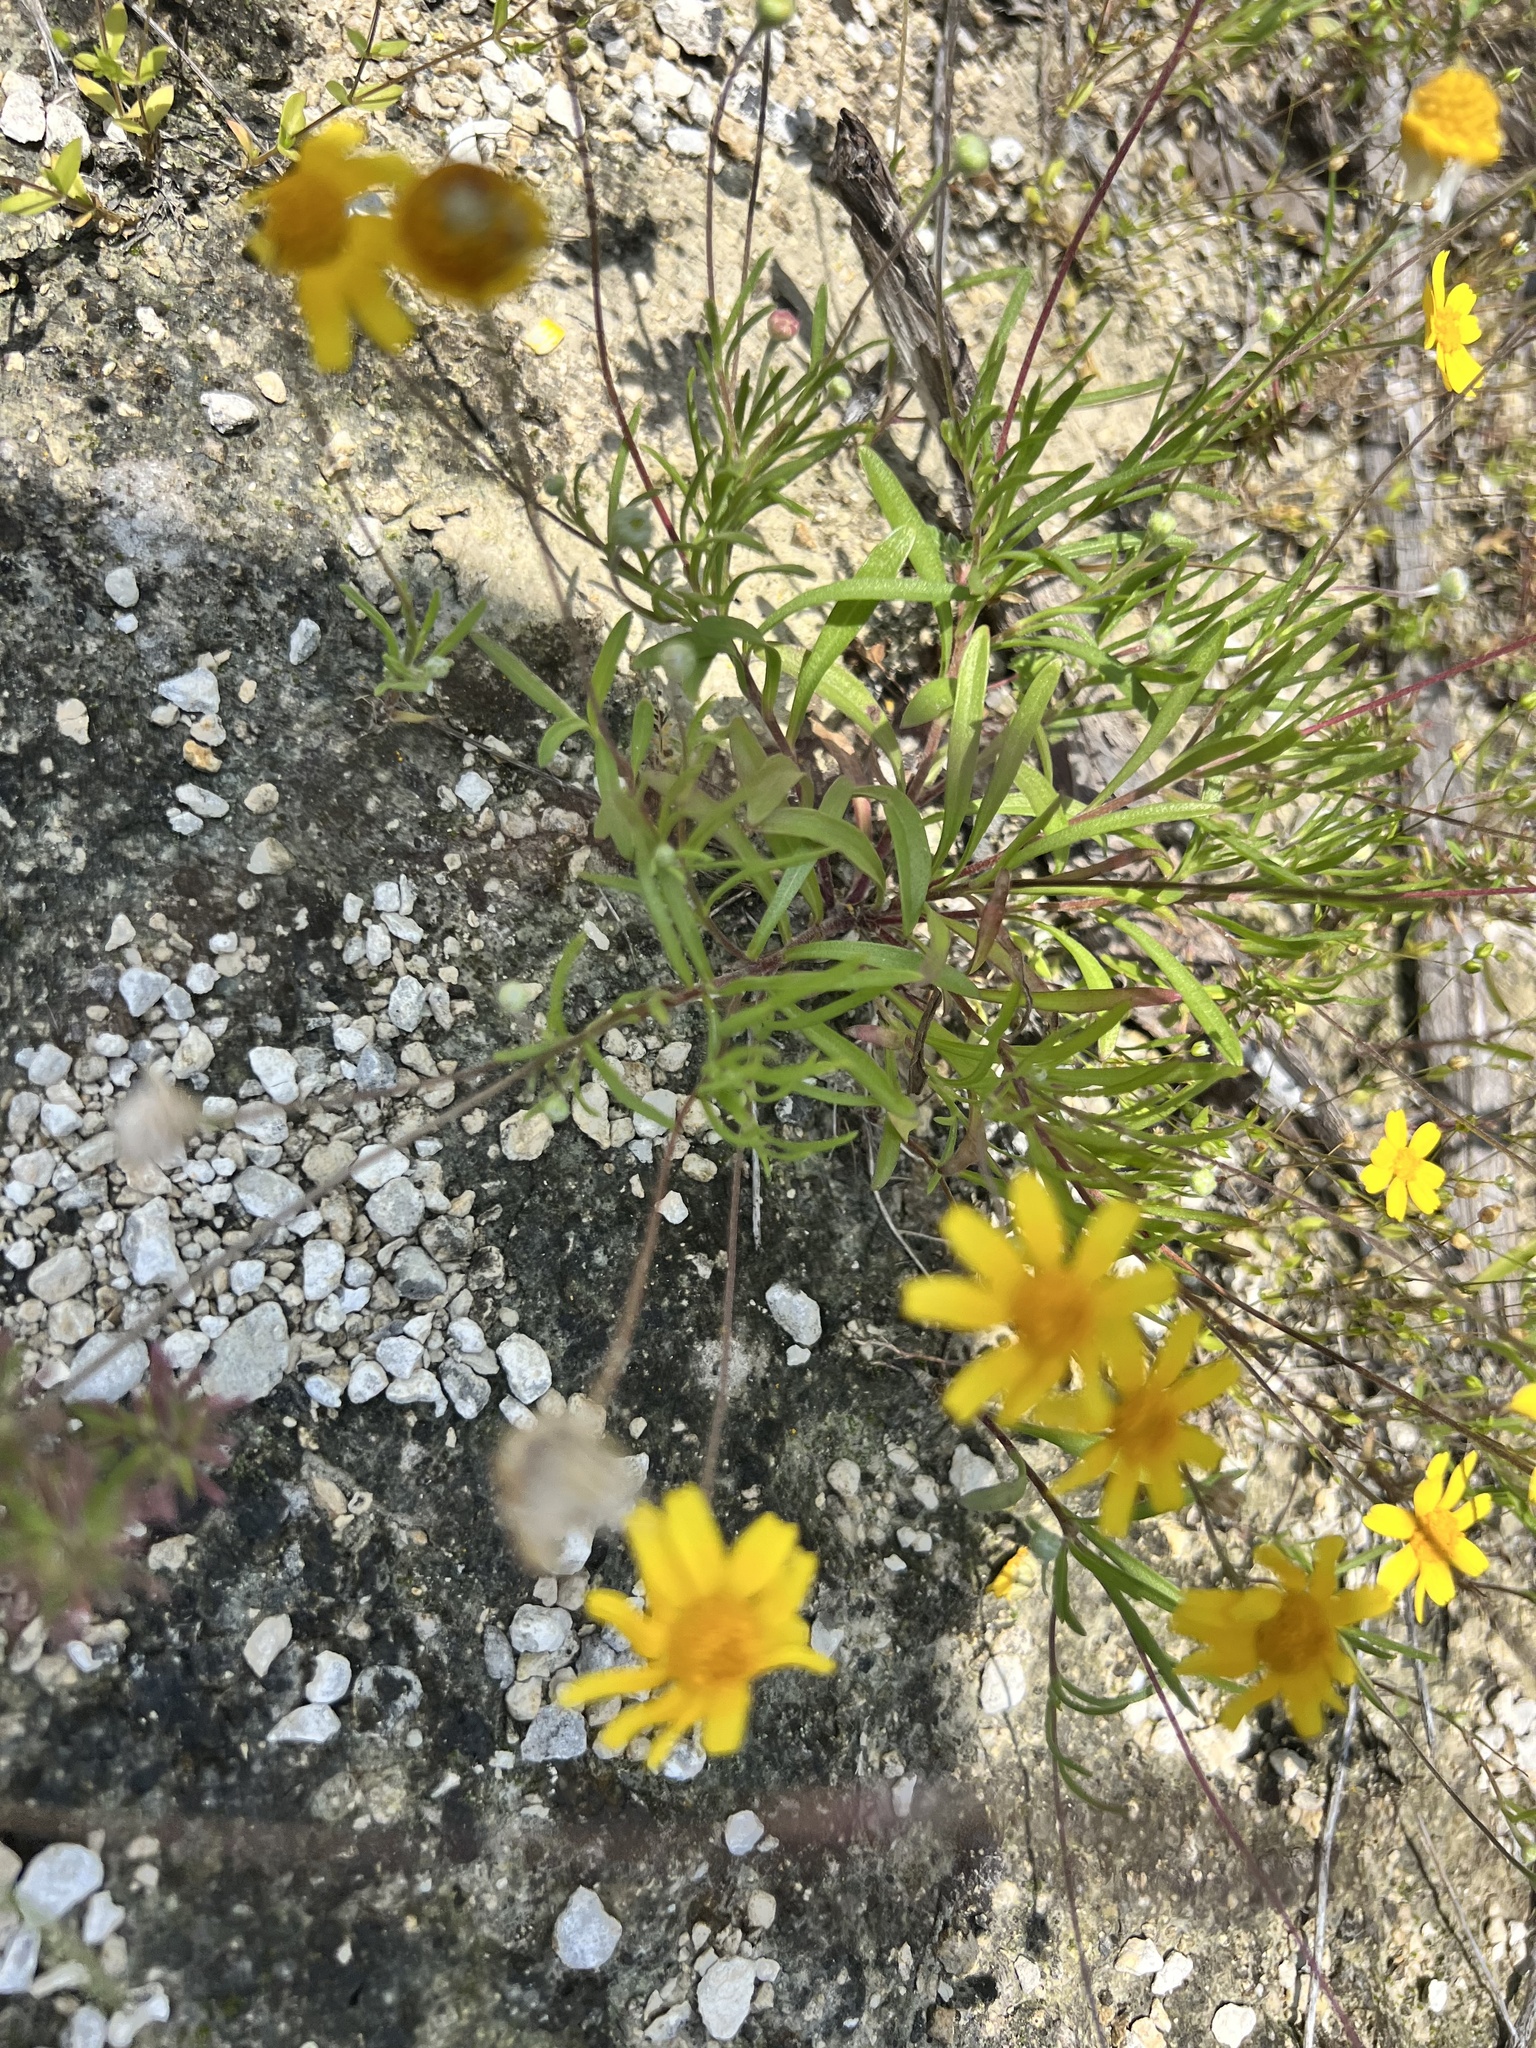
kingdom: Plantae
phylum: Tracheophyta
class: Magnoliopsida
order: Asterales
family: Asteraceae
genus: Tetraneuris
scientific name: Tetraneuris linearifolia
